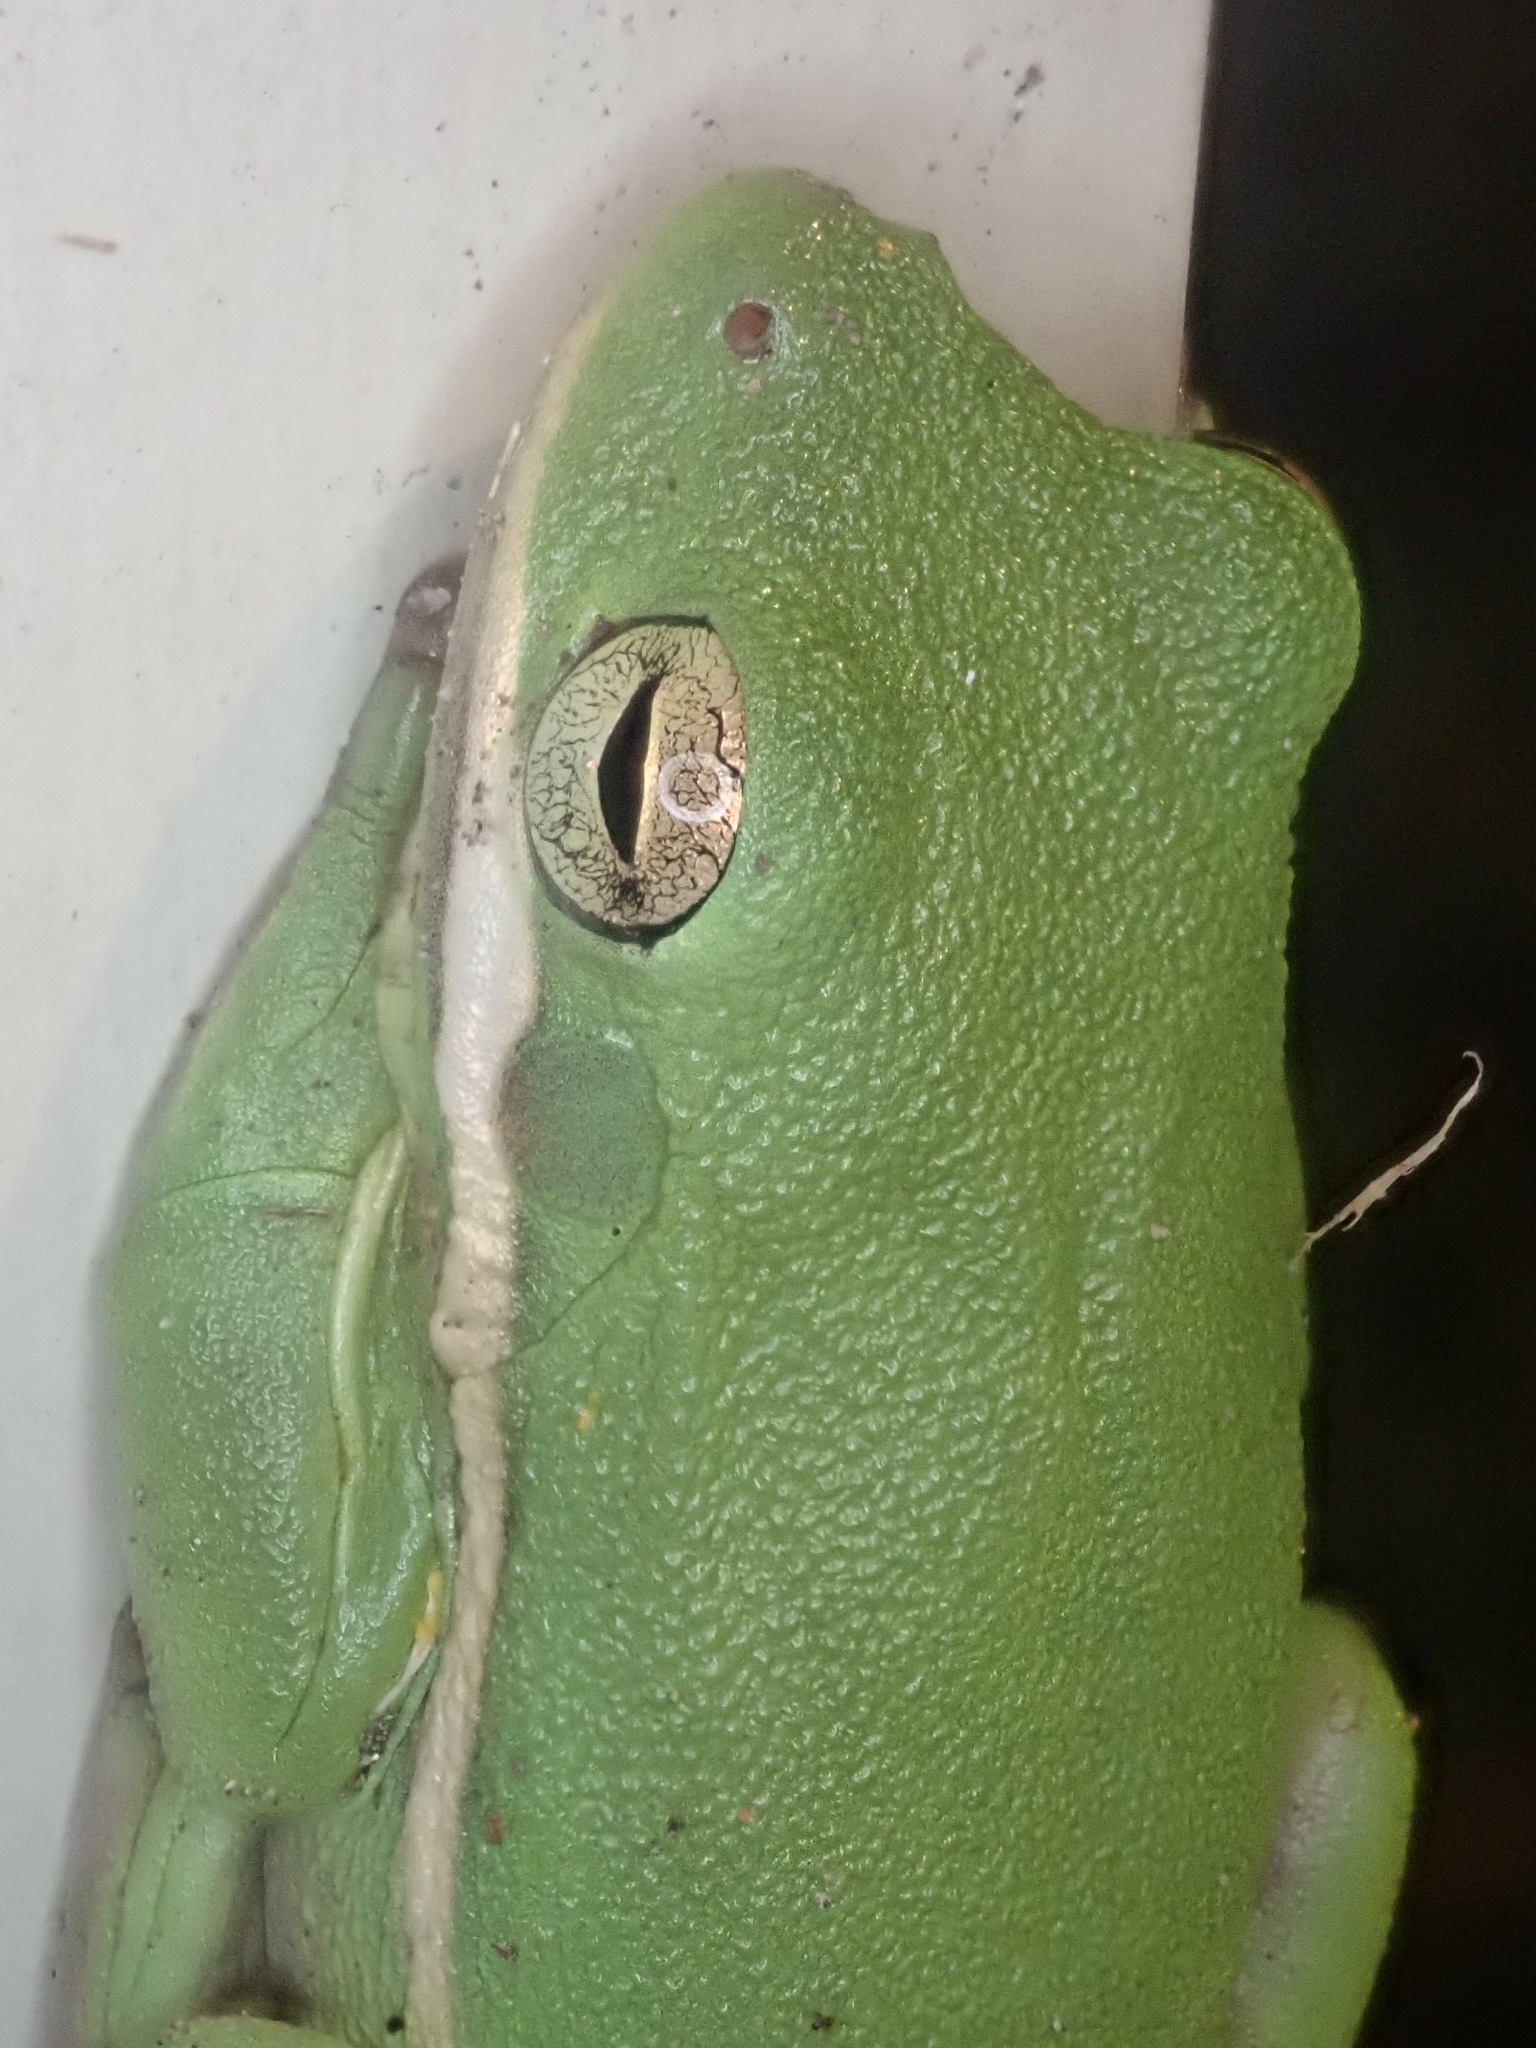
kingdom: Animalia
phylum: Chordata
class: Amphibia
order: Anura
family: Hylidae
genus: Dryophytes
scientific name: Dryophytes cinereus
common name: Green treefrog
